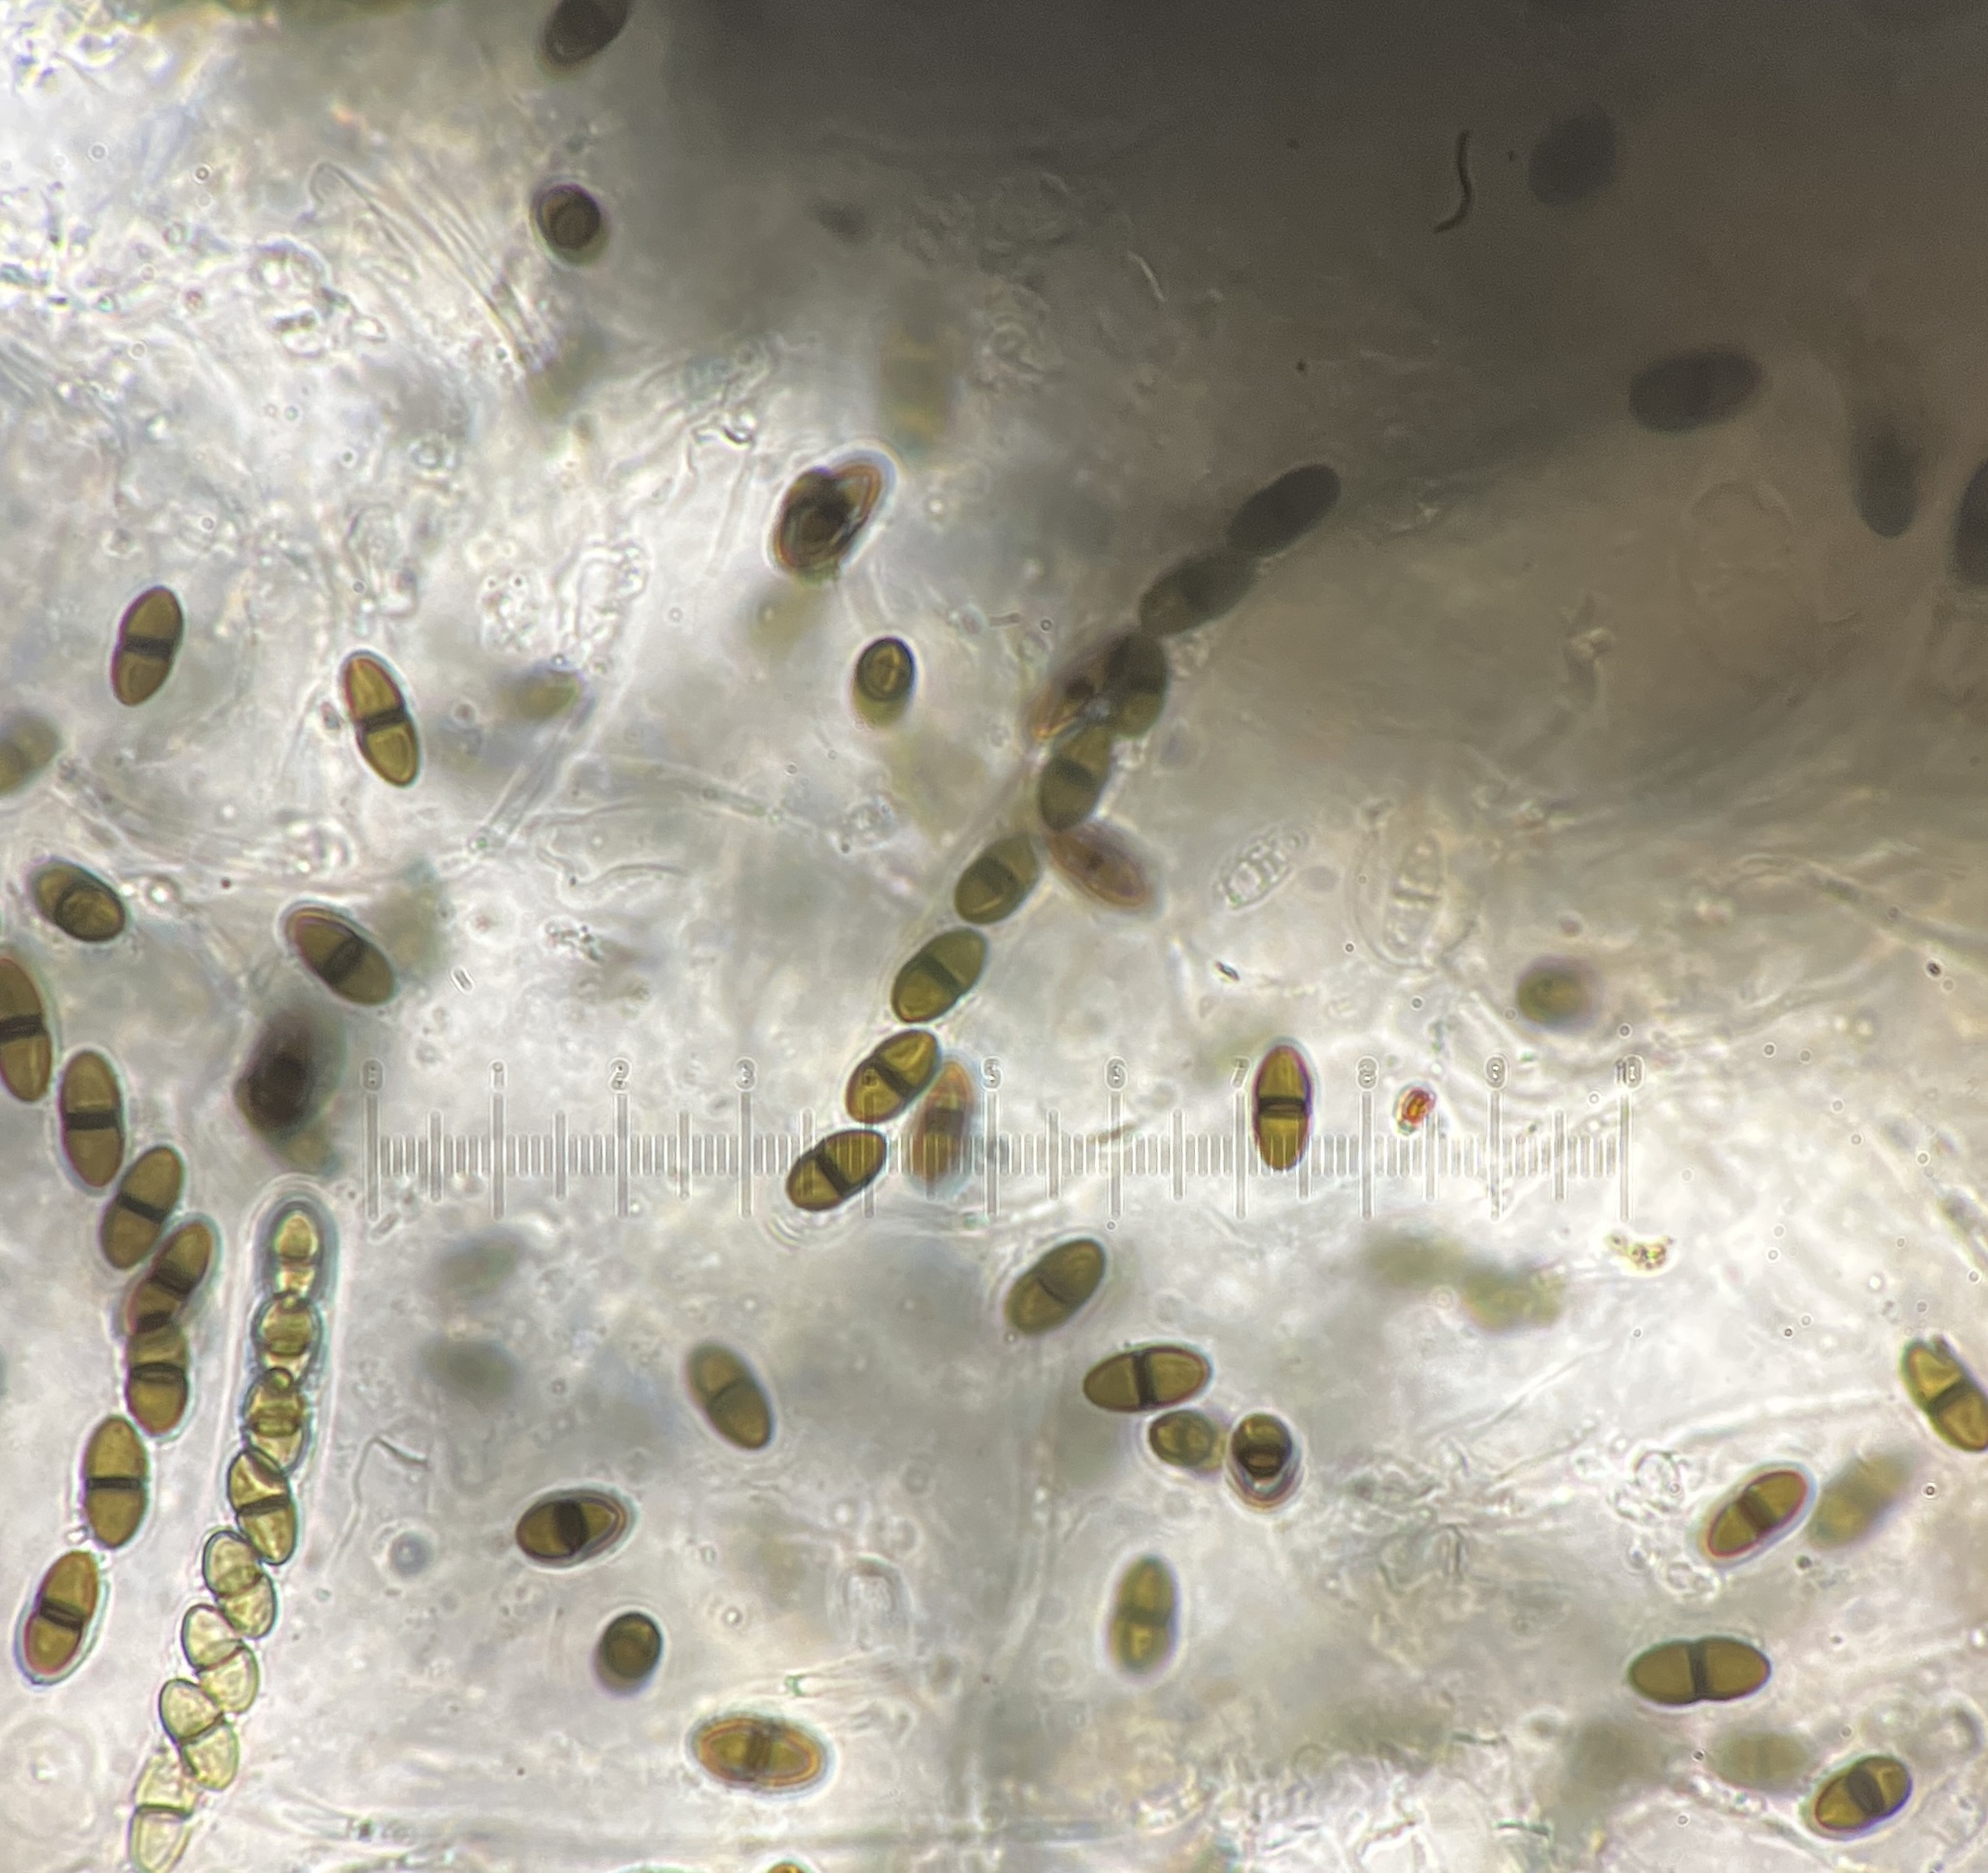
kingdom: Fungi
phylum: Ascomycota
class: Dothideomycetes
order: Pleosporales
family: Delitschiaceae
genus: Delitschia
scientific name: Delitschia perpusilla
